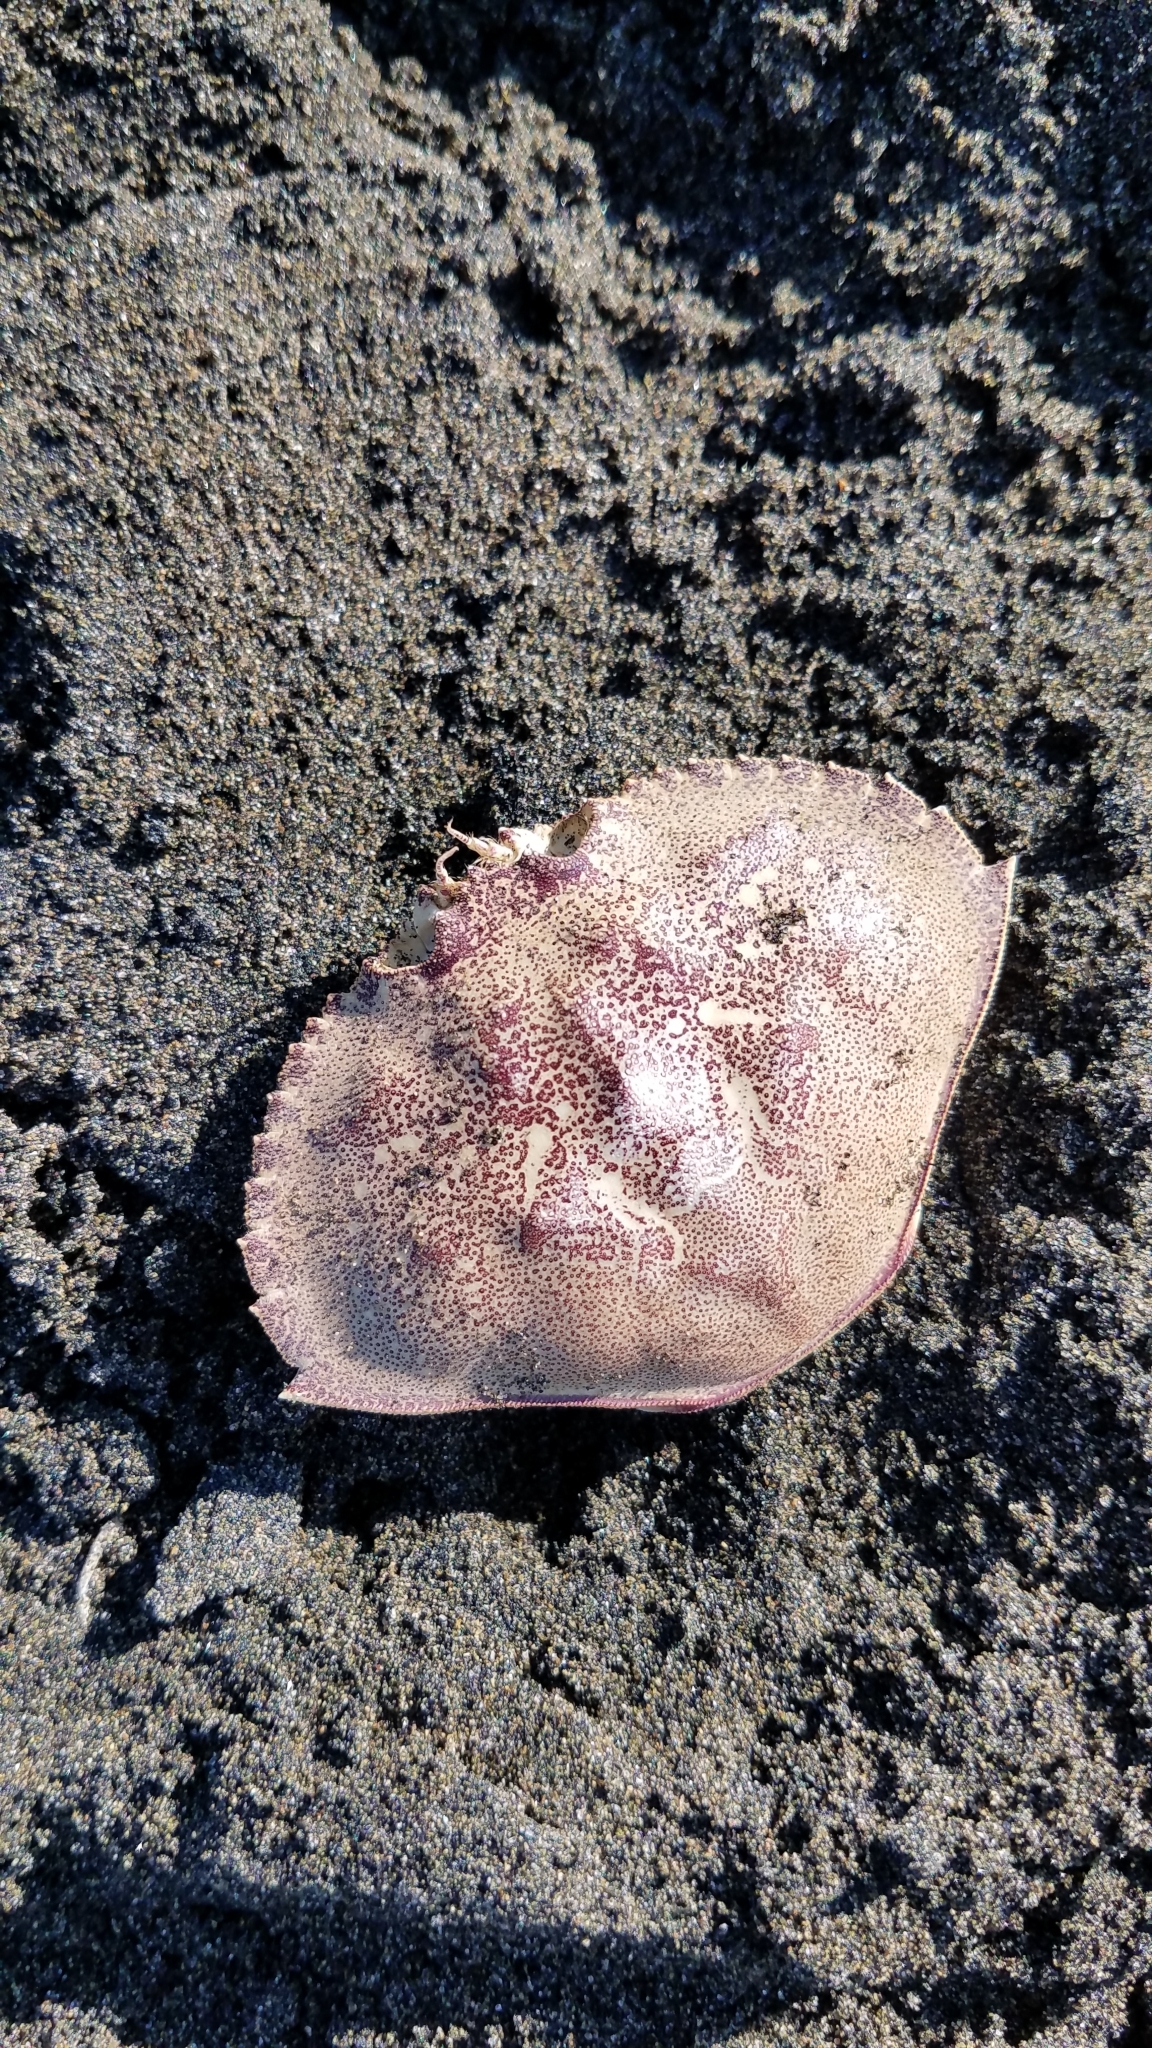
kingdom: Animalia
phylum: Arthropoda
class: Malacostraca
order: Decapoda
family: Cancridae
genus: Metacarcinus
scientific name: Metacarcinus magister
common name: Californian crab
